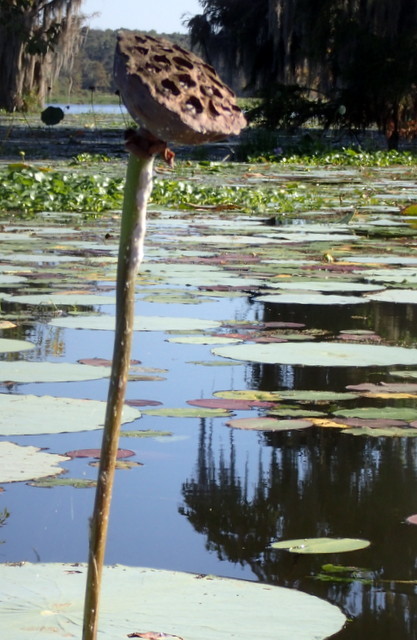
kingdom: Plantae
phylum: Tracheophyta
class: Magnoliopsida
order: Proteales
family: Nelumbonaceae
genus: Nelumbo
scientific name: Nelumbo lutea
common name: American lotus
